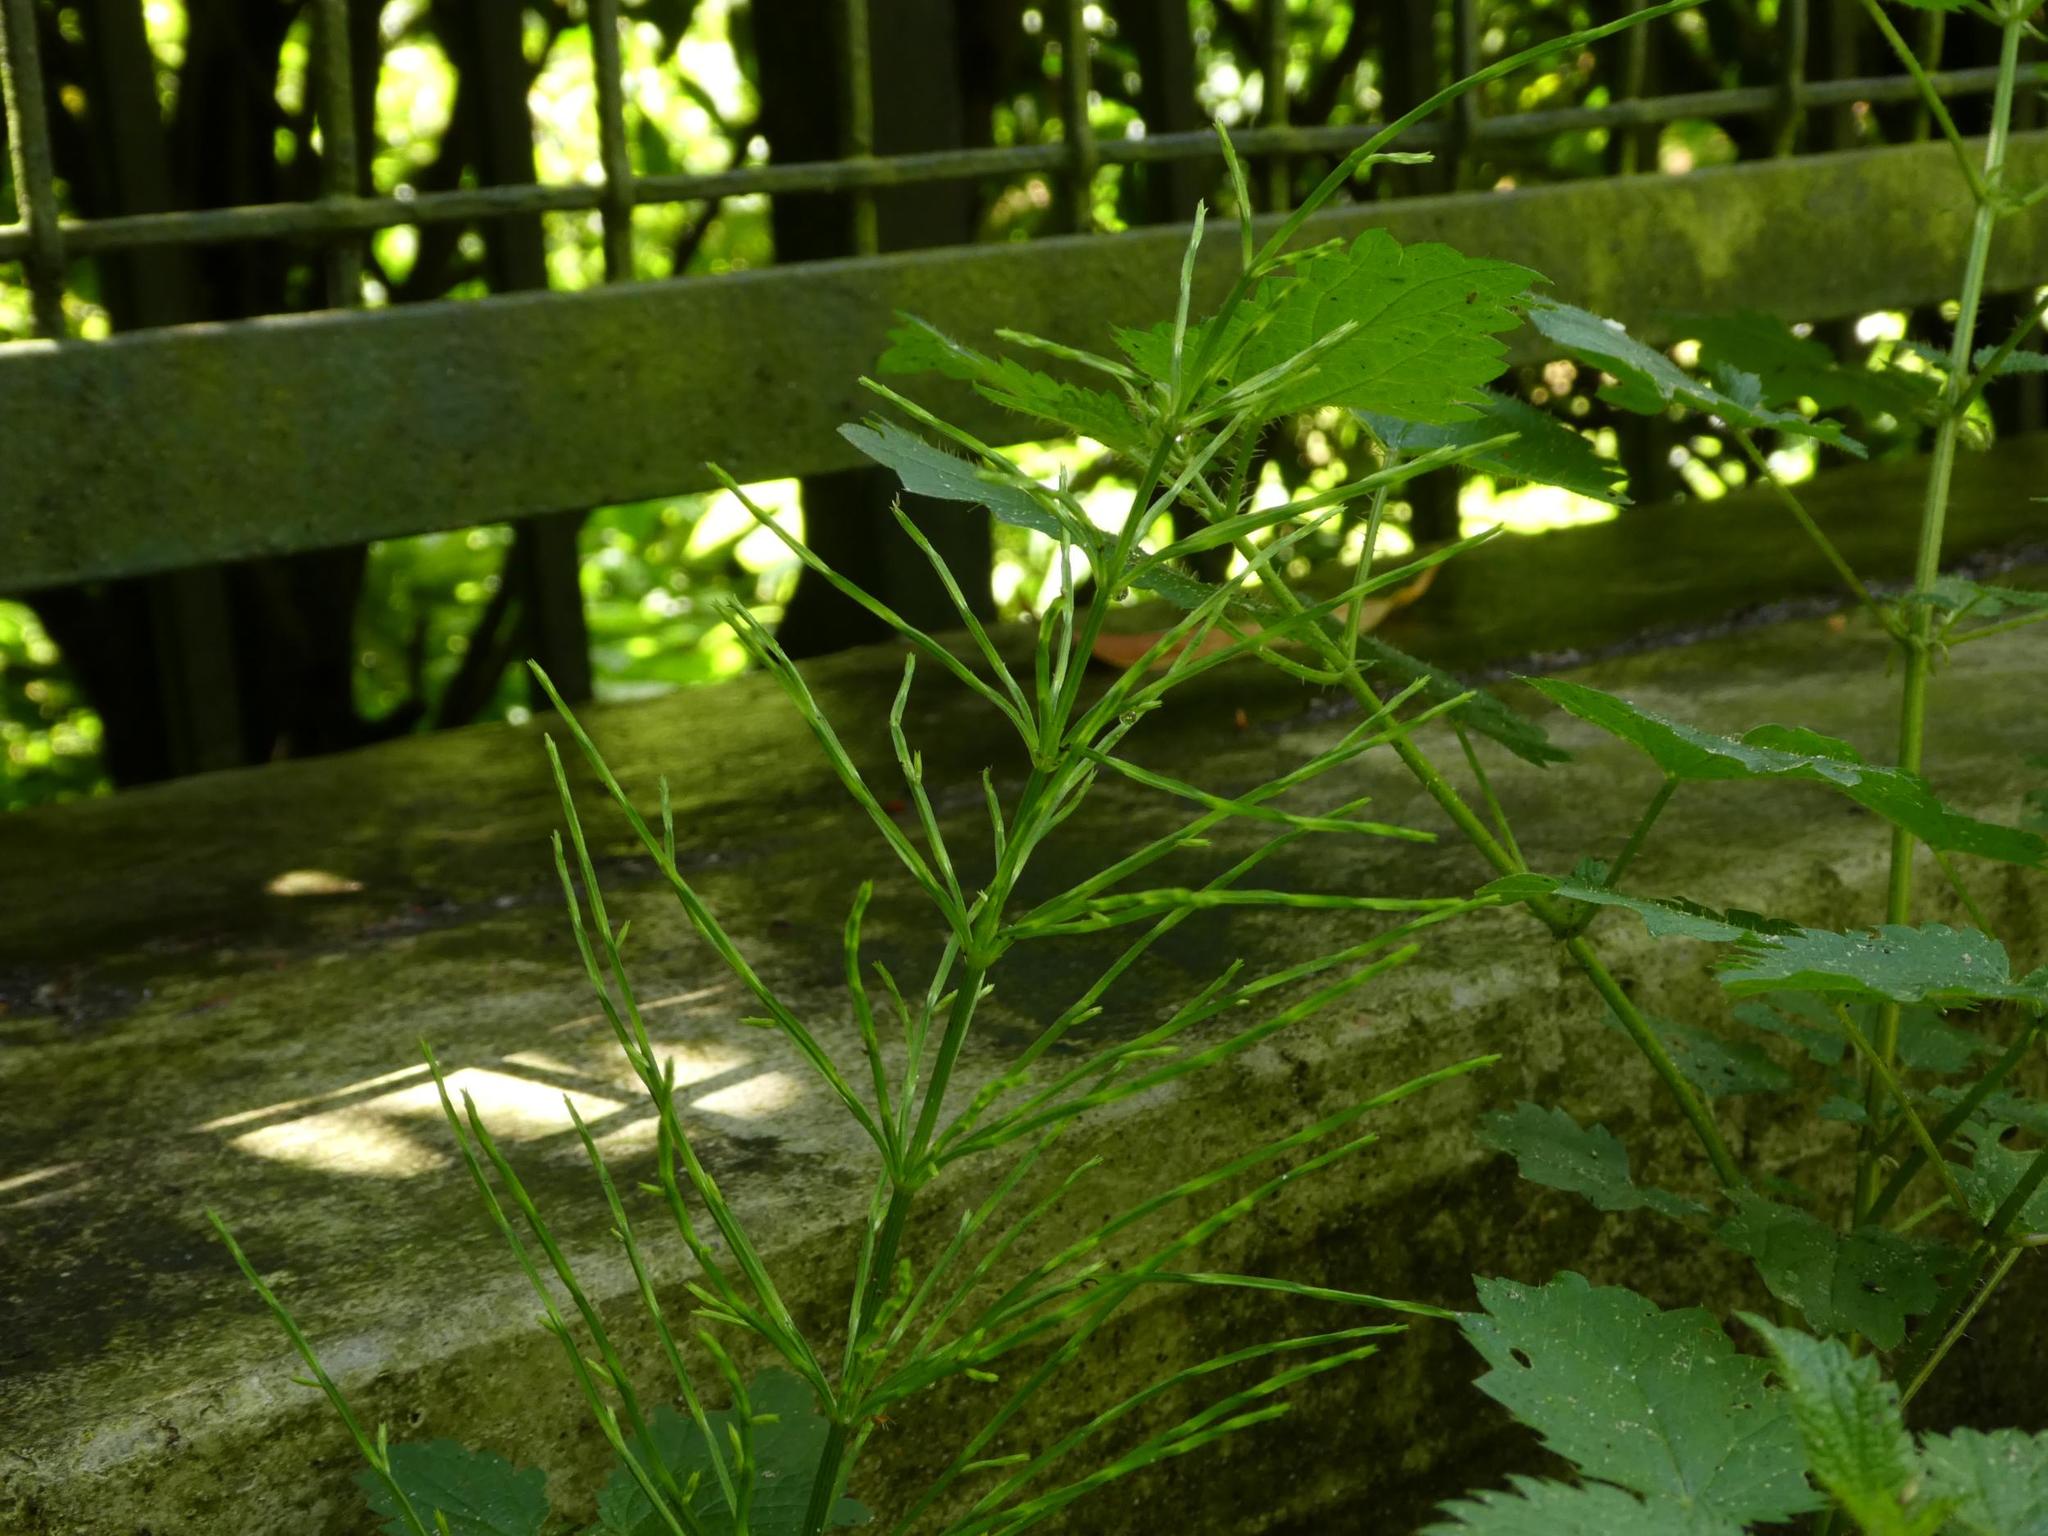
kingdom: Plantae
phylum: Tracheophyta
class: Polypodiopsida
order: Equisetales
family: Equisetaceae
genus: Equisetum
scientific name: Equisetum arvense
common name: Field horsetail
